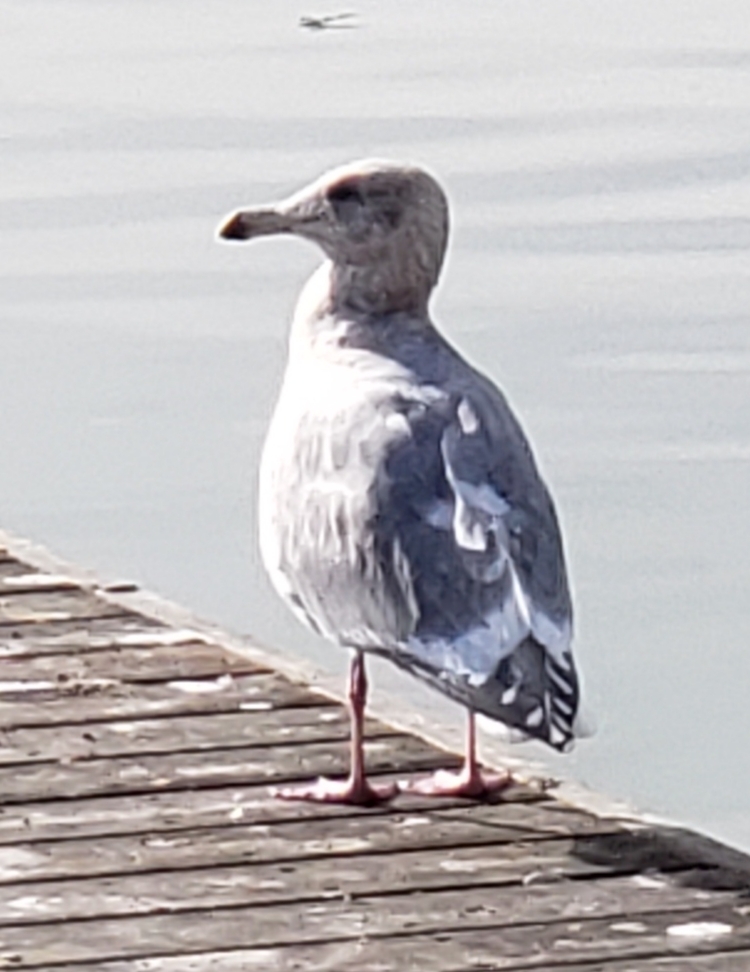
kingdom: Animalia
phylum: Chordata
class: Aves
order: Charadriiformes
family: Laridae
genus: Larus
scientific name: Larus
